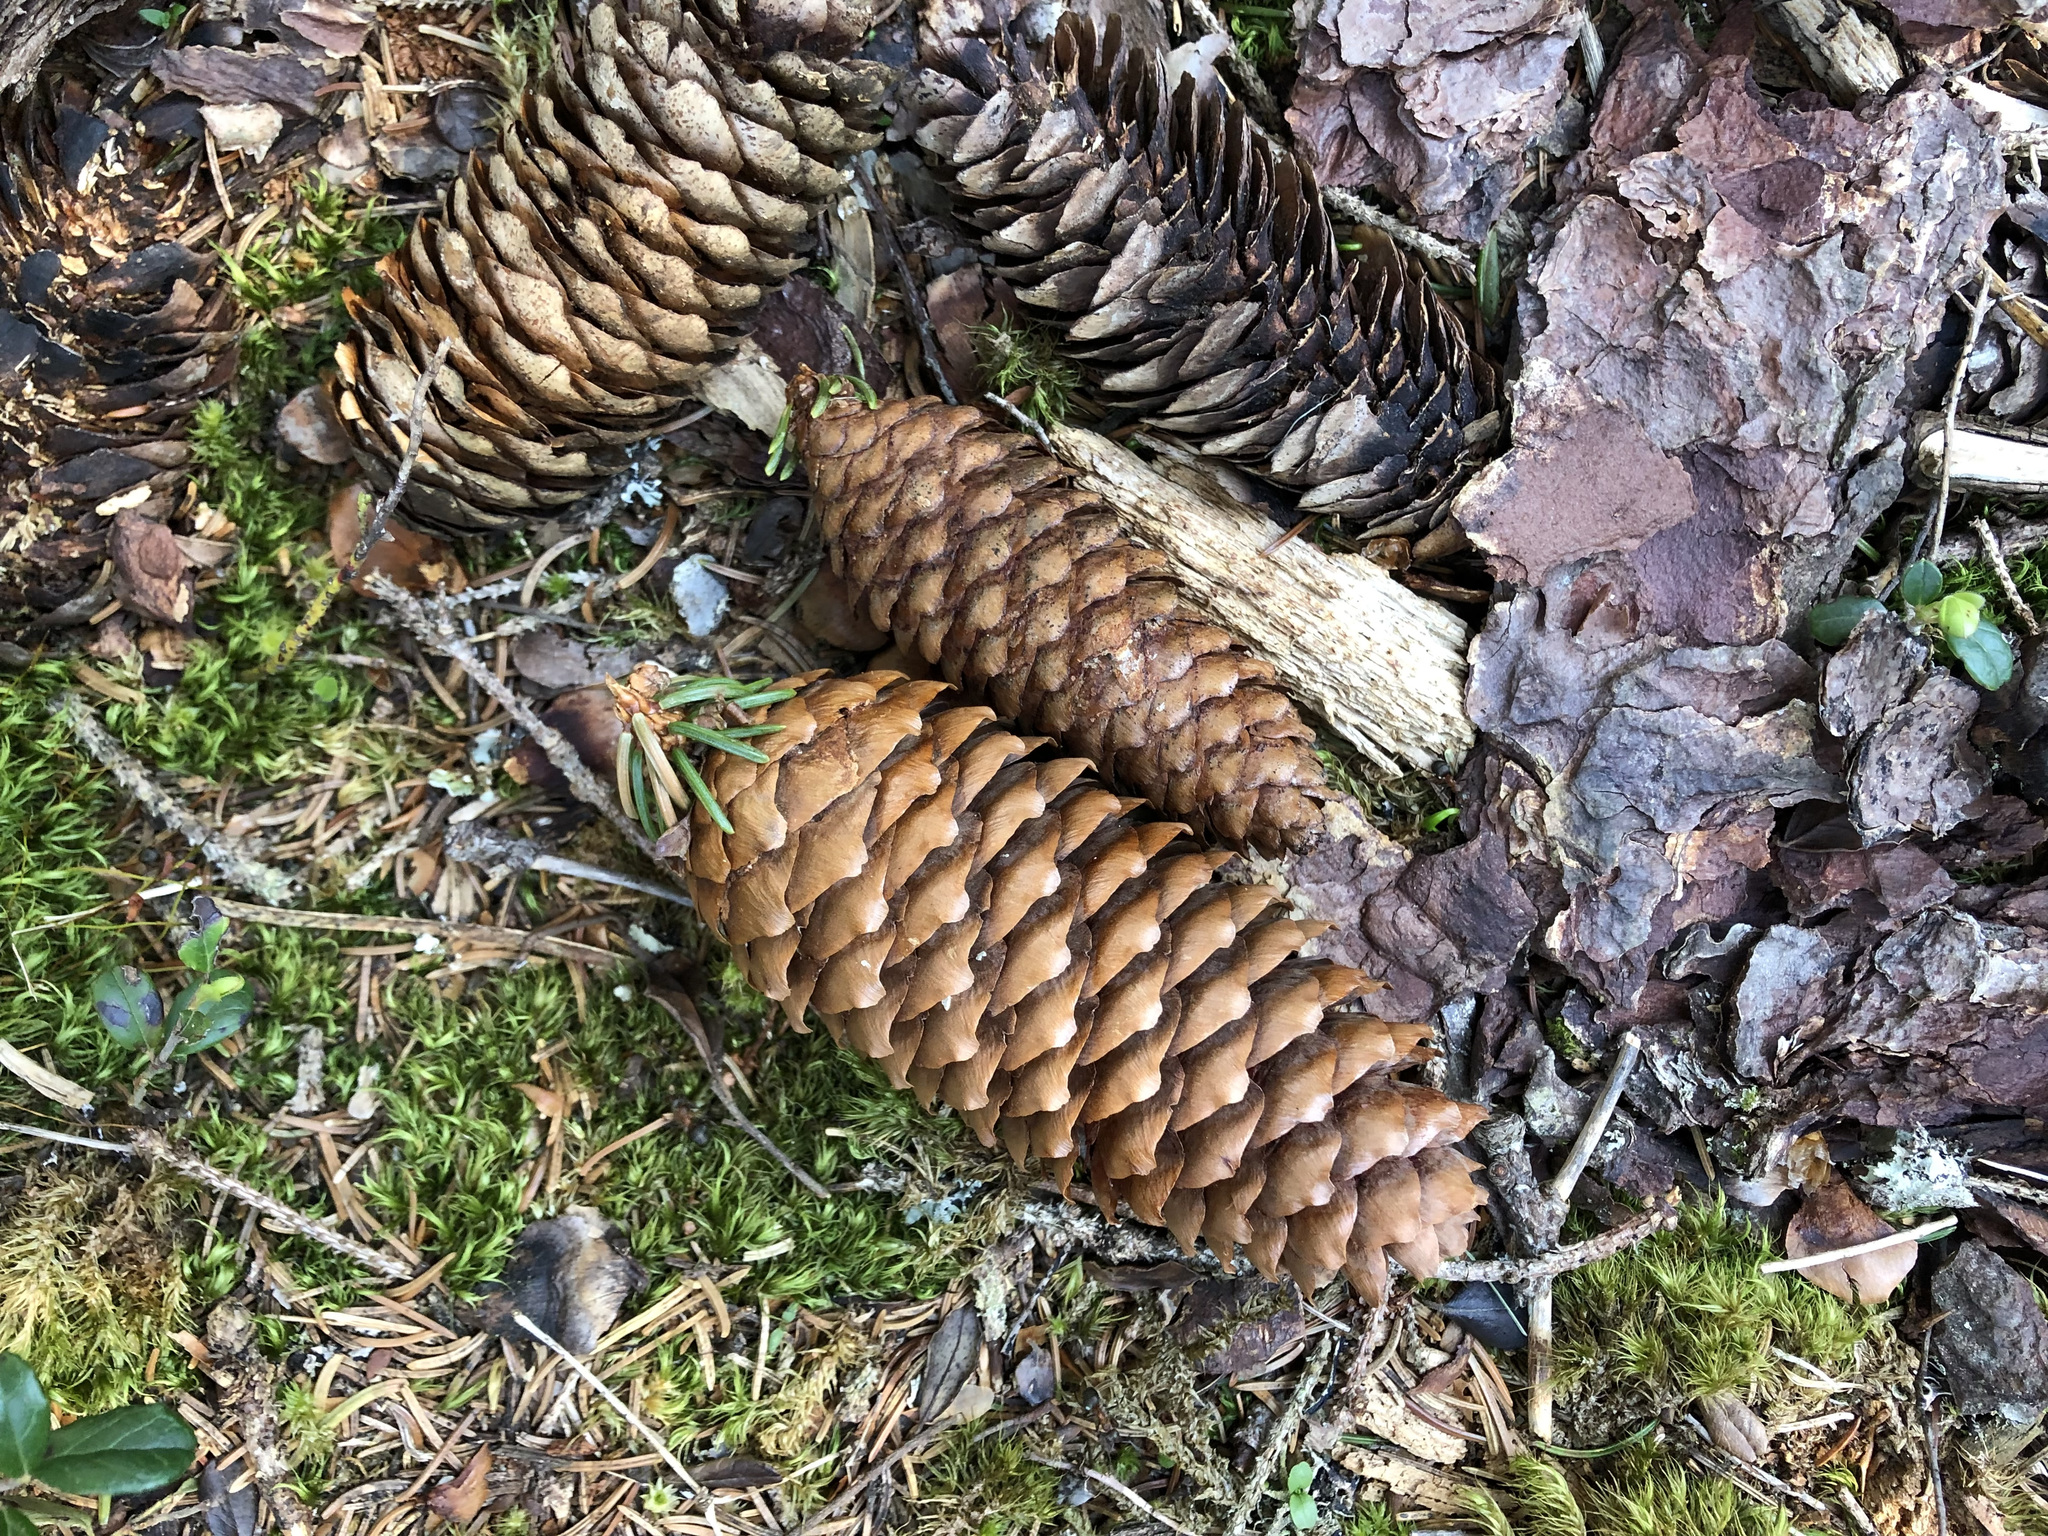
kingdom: Plantae
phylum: Tracheophyta
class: Pinopsida
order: Pinales
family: Pinaceae
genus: Picea
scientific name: Picea abies
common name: Norway spruce
